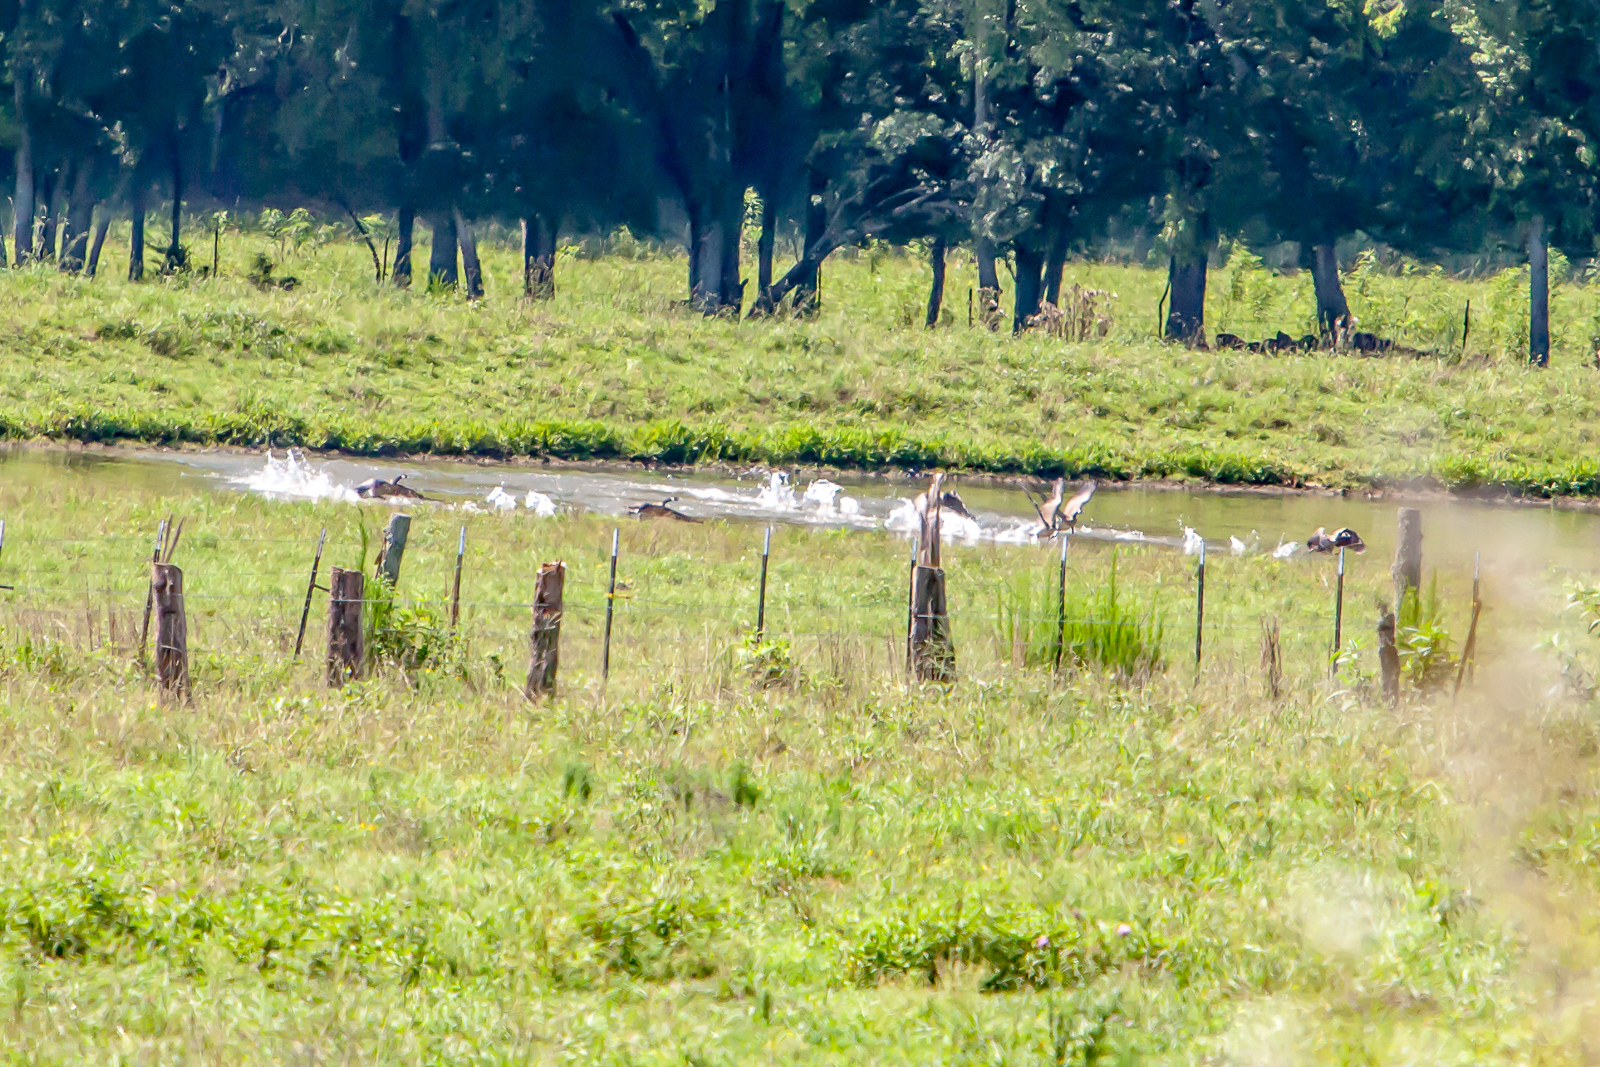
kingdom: Animalia
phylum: Chordata
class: Aves
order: Anseriformes
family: Anatidae
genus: Branta
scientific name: Branta canadensis
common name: Canada goose
